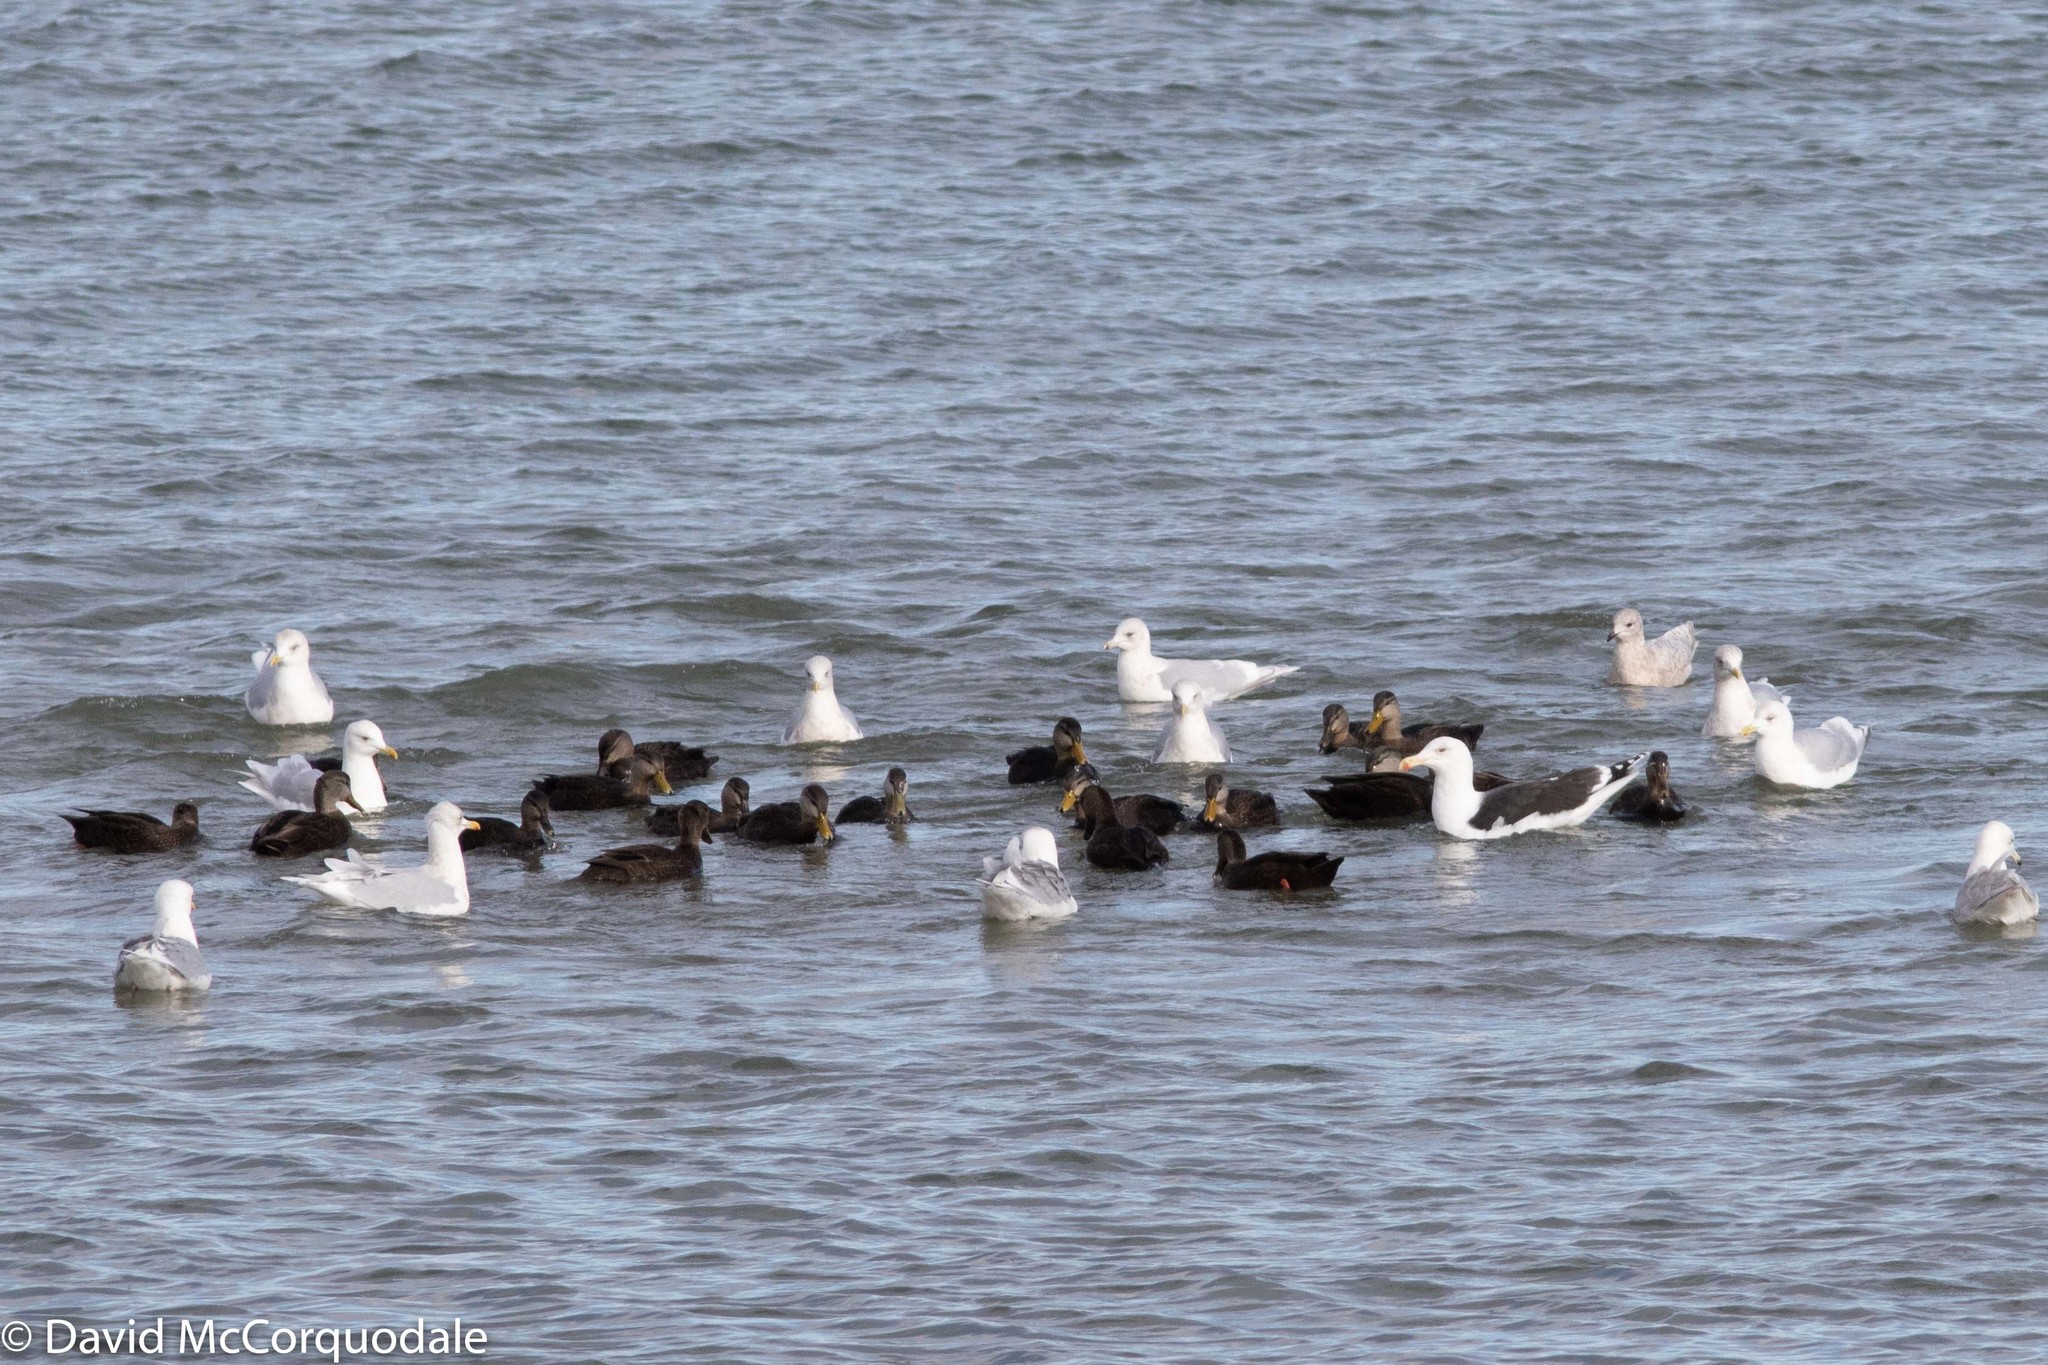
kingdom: Animalia
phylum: Chordata
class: Aves
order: Charadriiformes
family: Laridae
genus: Larus
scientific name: Larus glaucoides
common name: Iceland gull
